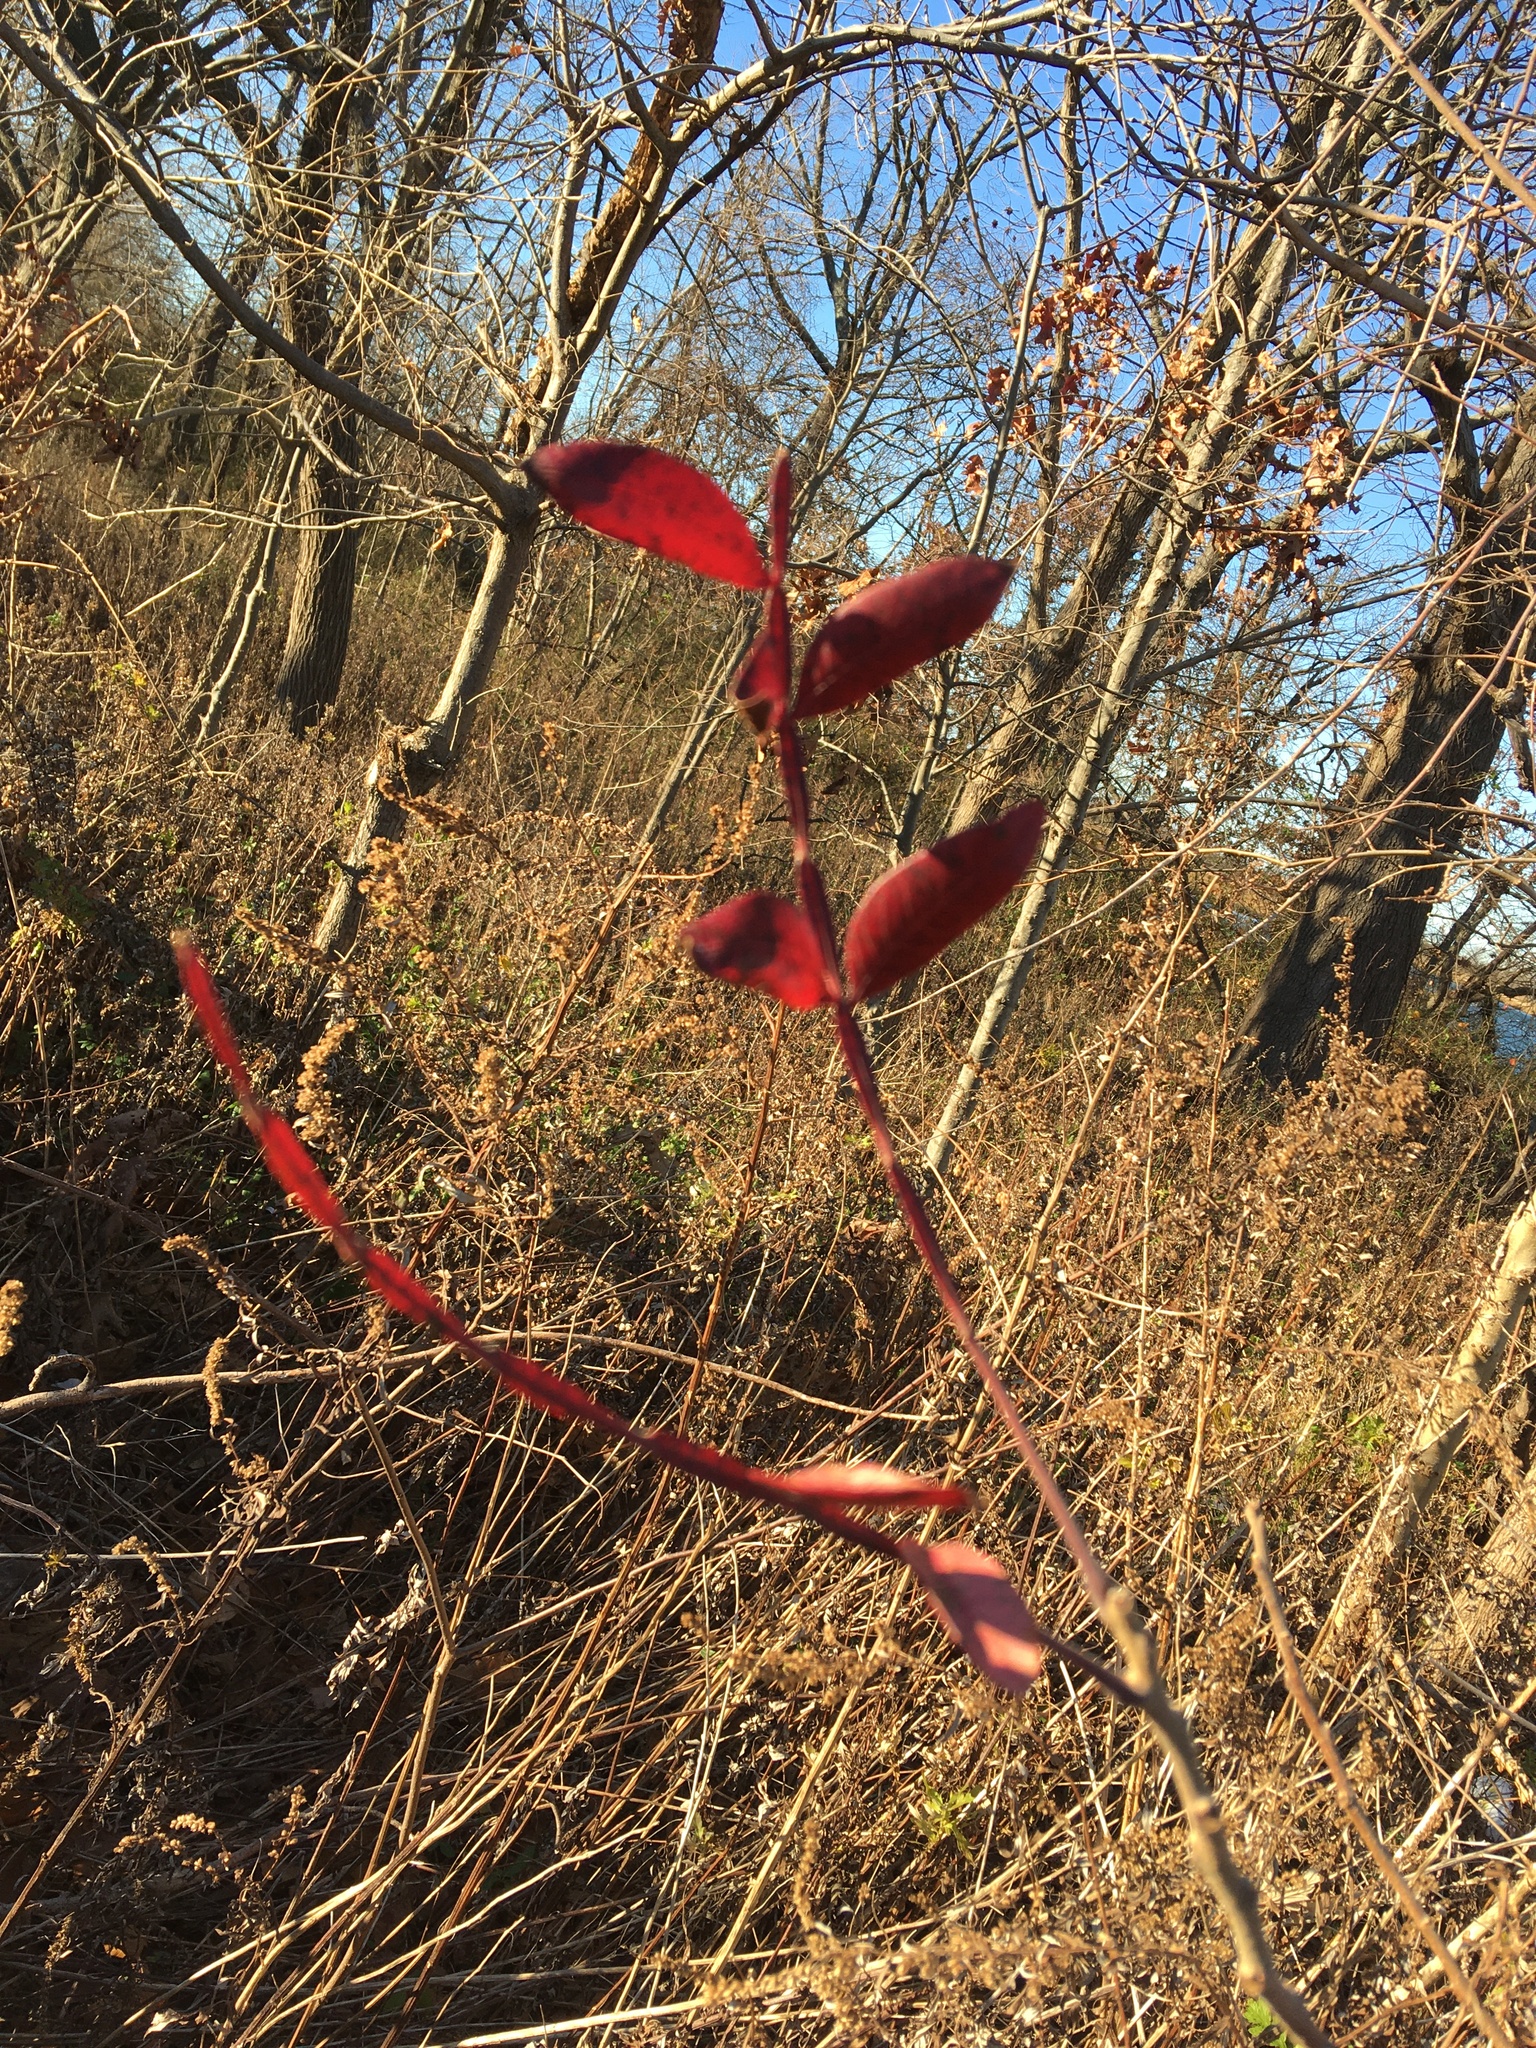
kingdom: Plantae
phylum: Tracheophyta
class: Magnoliopsida
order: Sapindales
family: Anacardiaceae
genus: Rhus
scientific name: Rhus copallina
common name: Shining sumac
